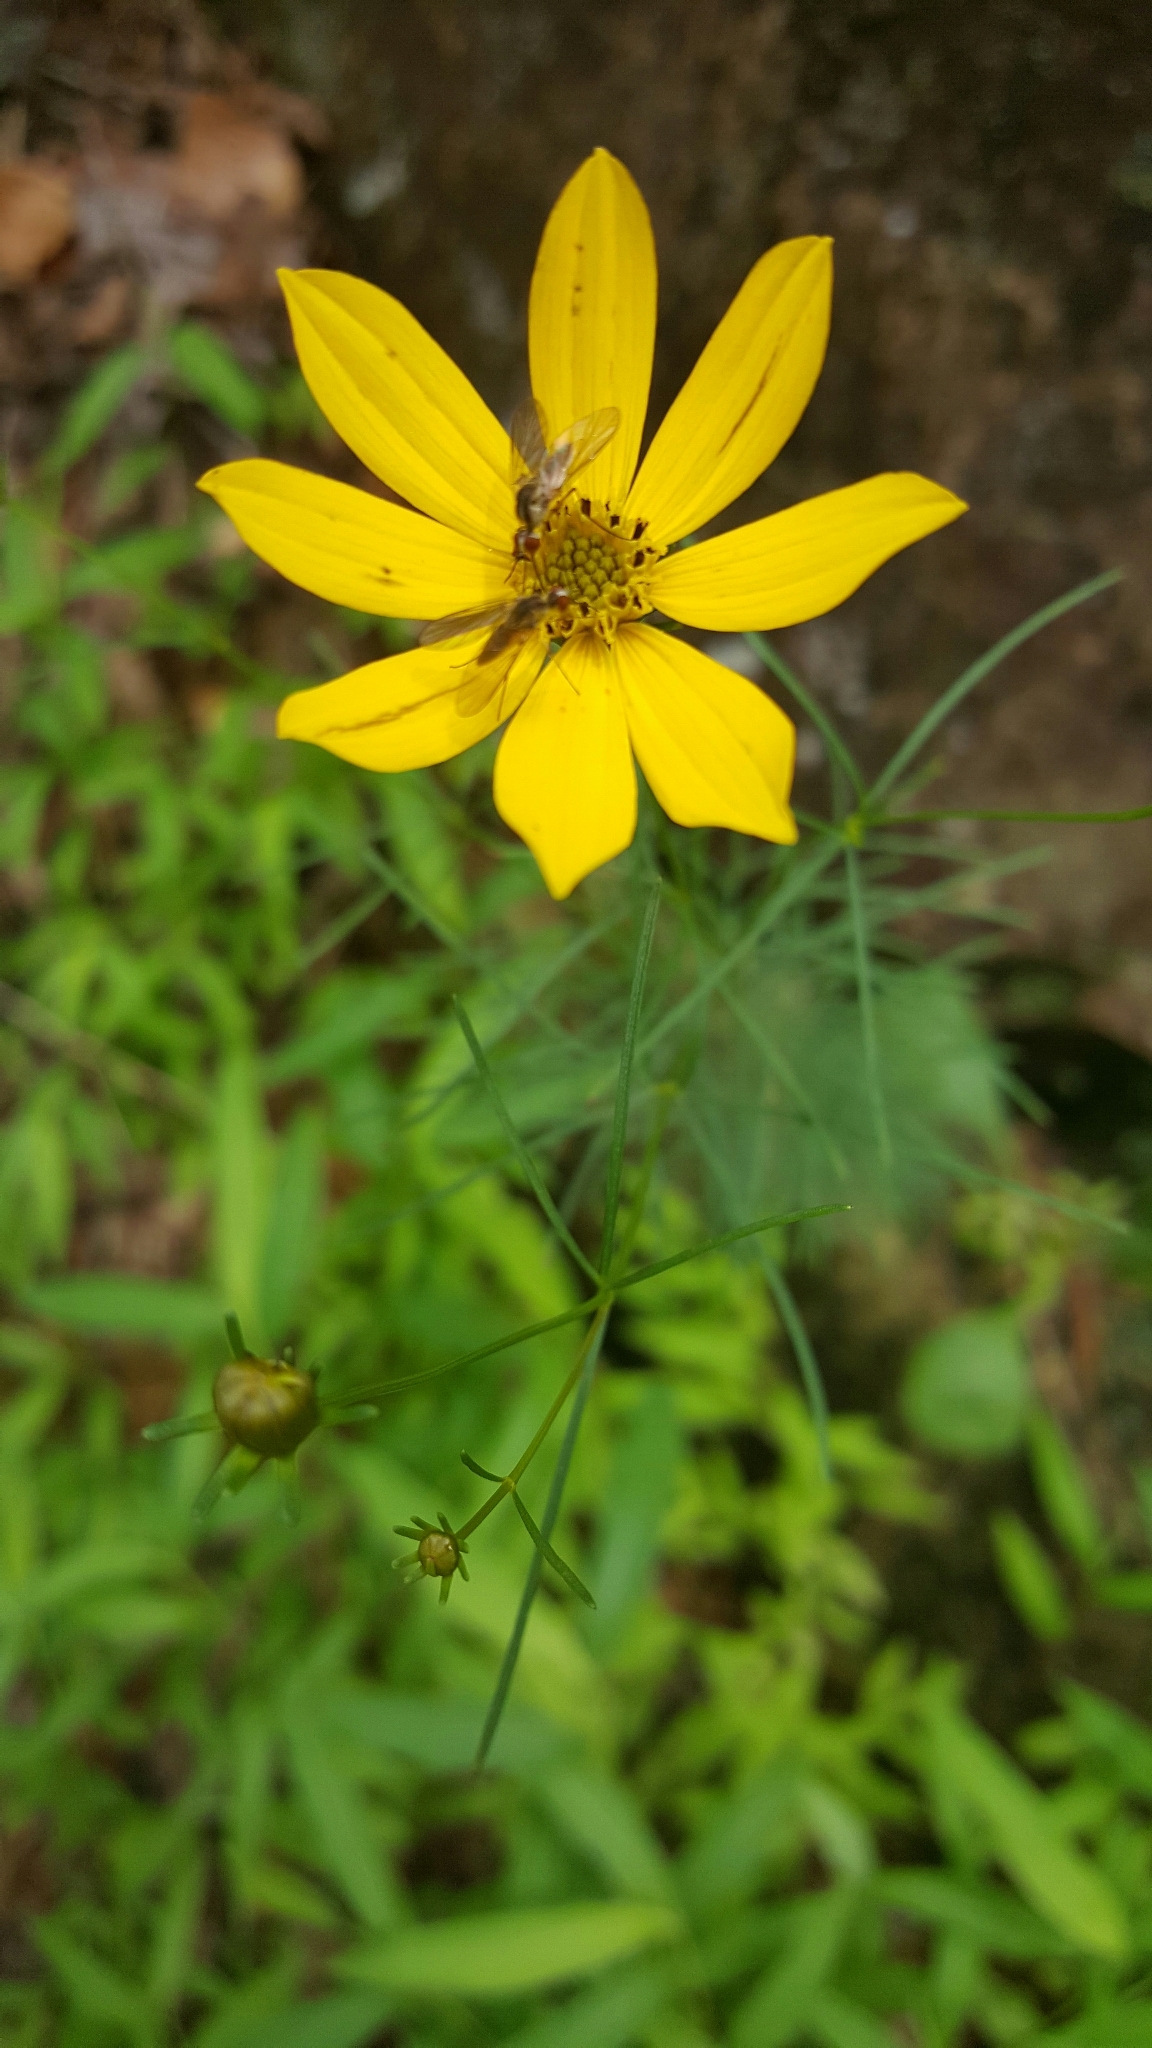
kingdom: Plantae
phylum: Tracheophyta
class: Magnoliopsida
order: Asterales
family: Asteraceae
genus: Coreopsis
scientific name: Coreopsis verticillata
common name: Whorled tickseed
